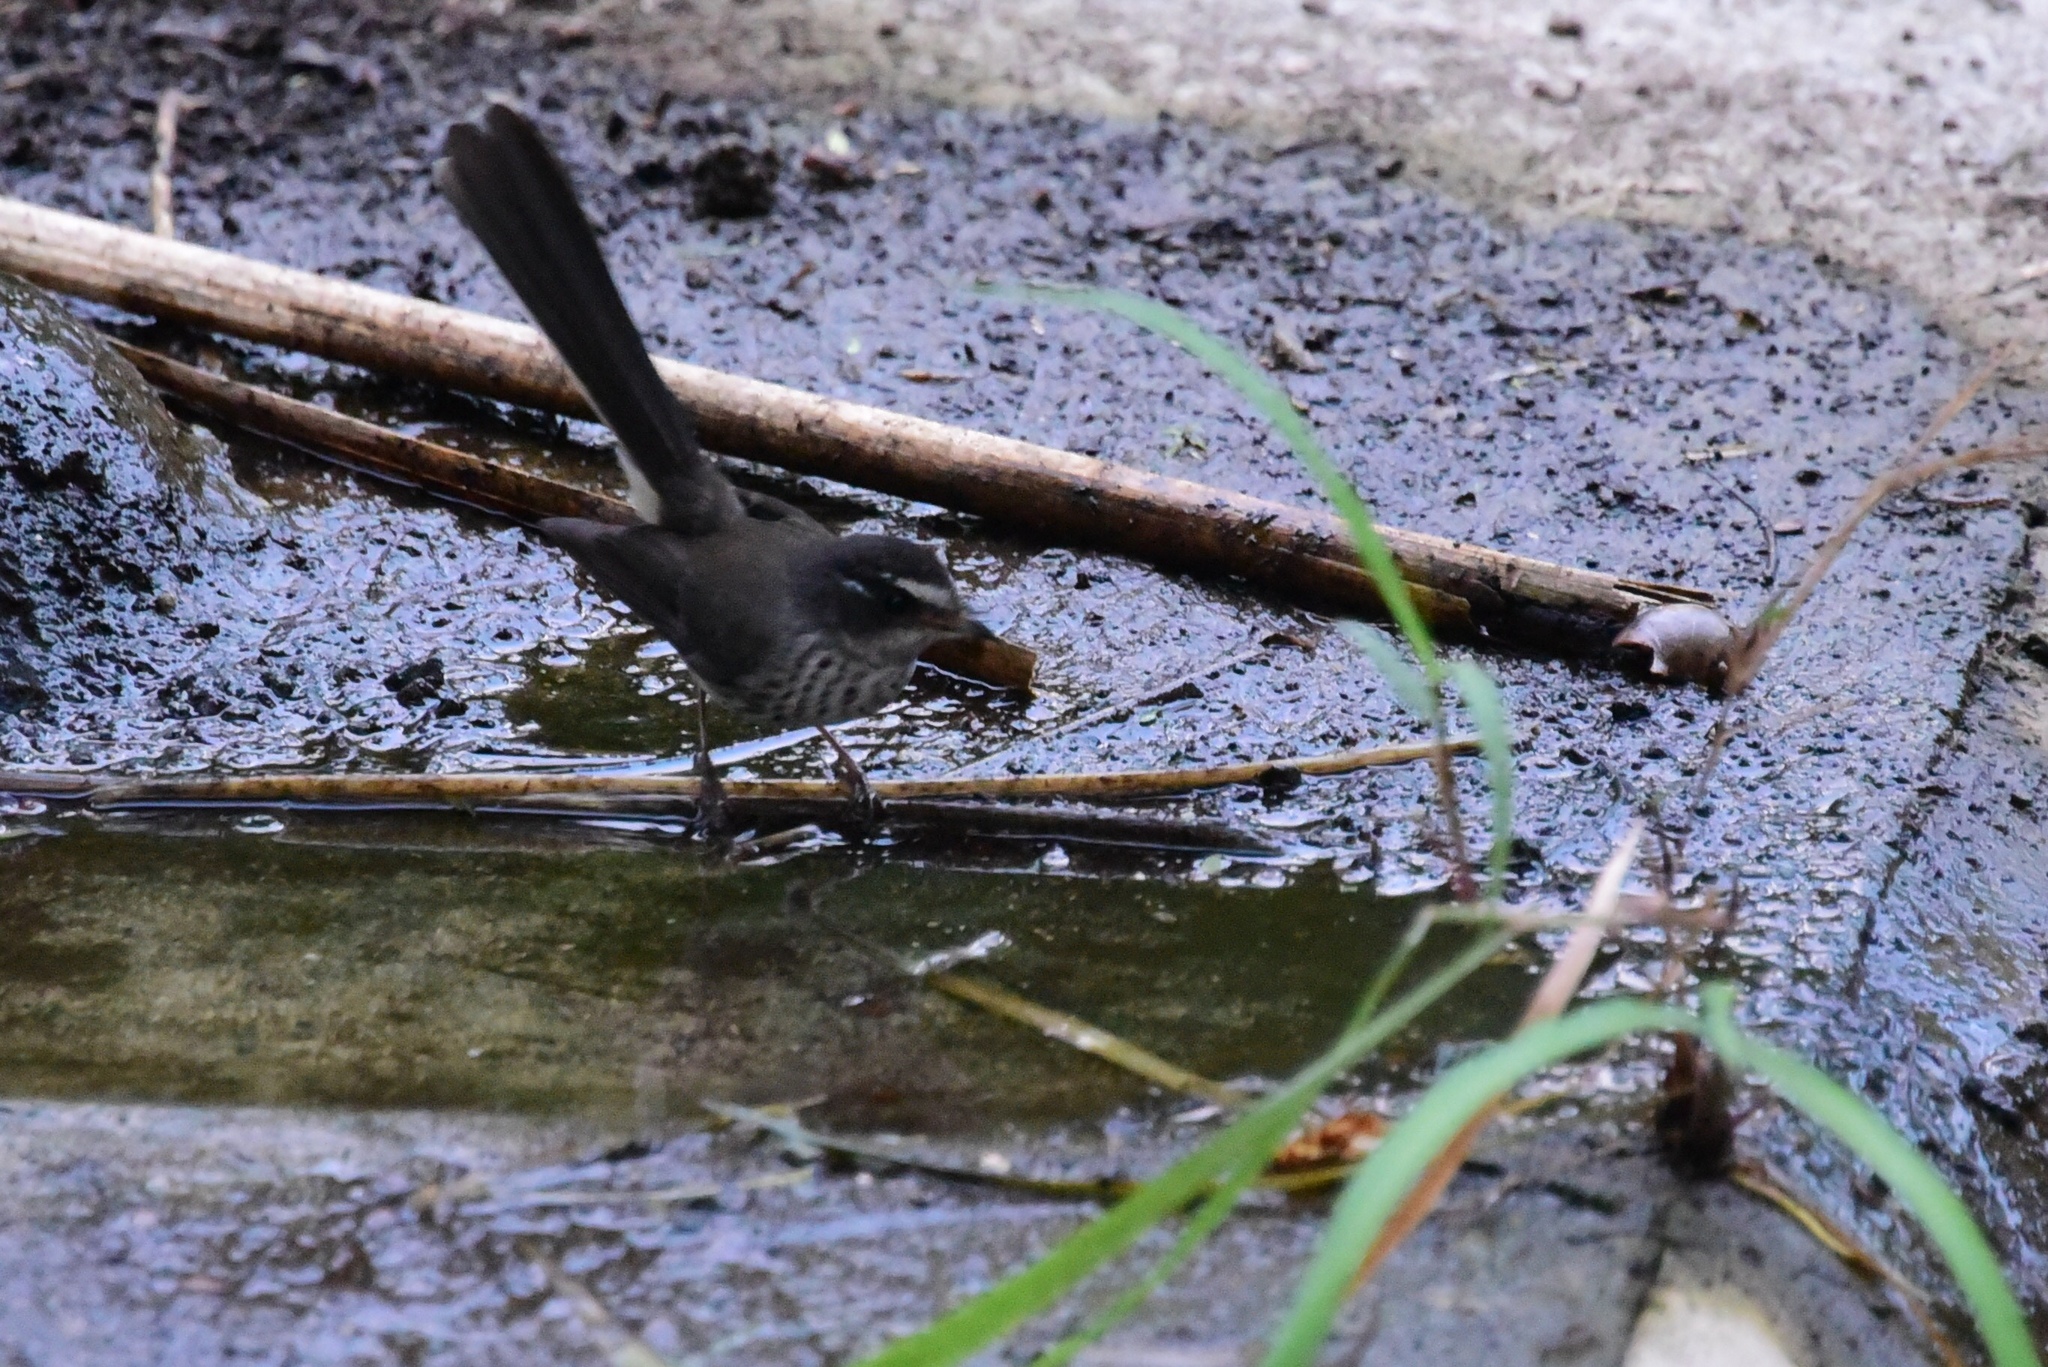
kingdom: Animalia
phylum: Chordata
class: Aves
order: Passeriformes
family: Rhipiduridae
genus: Rhipidura
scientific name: Rhipidura verreauxi
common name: Streaked fantail
